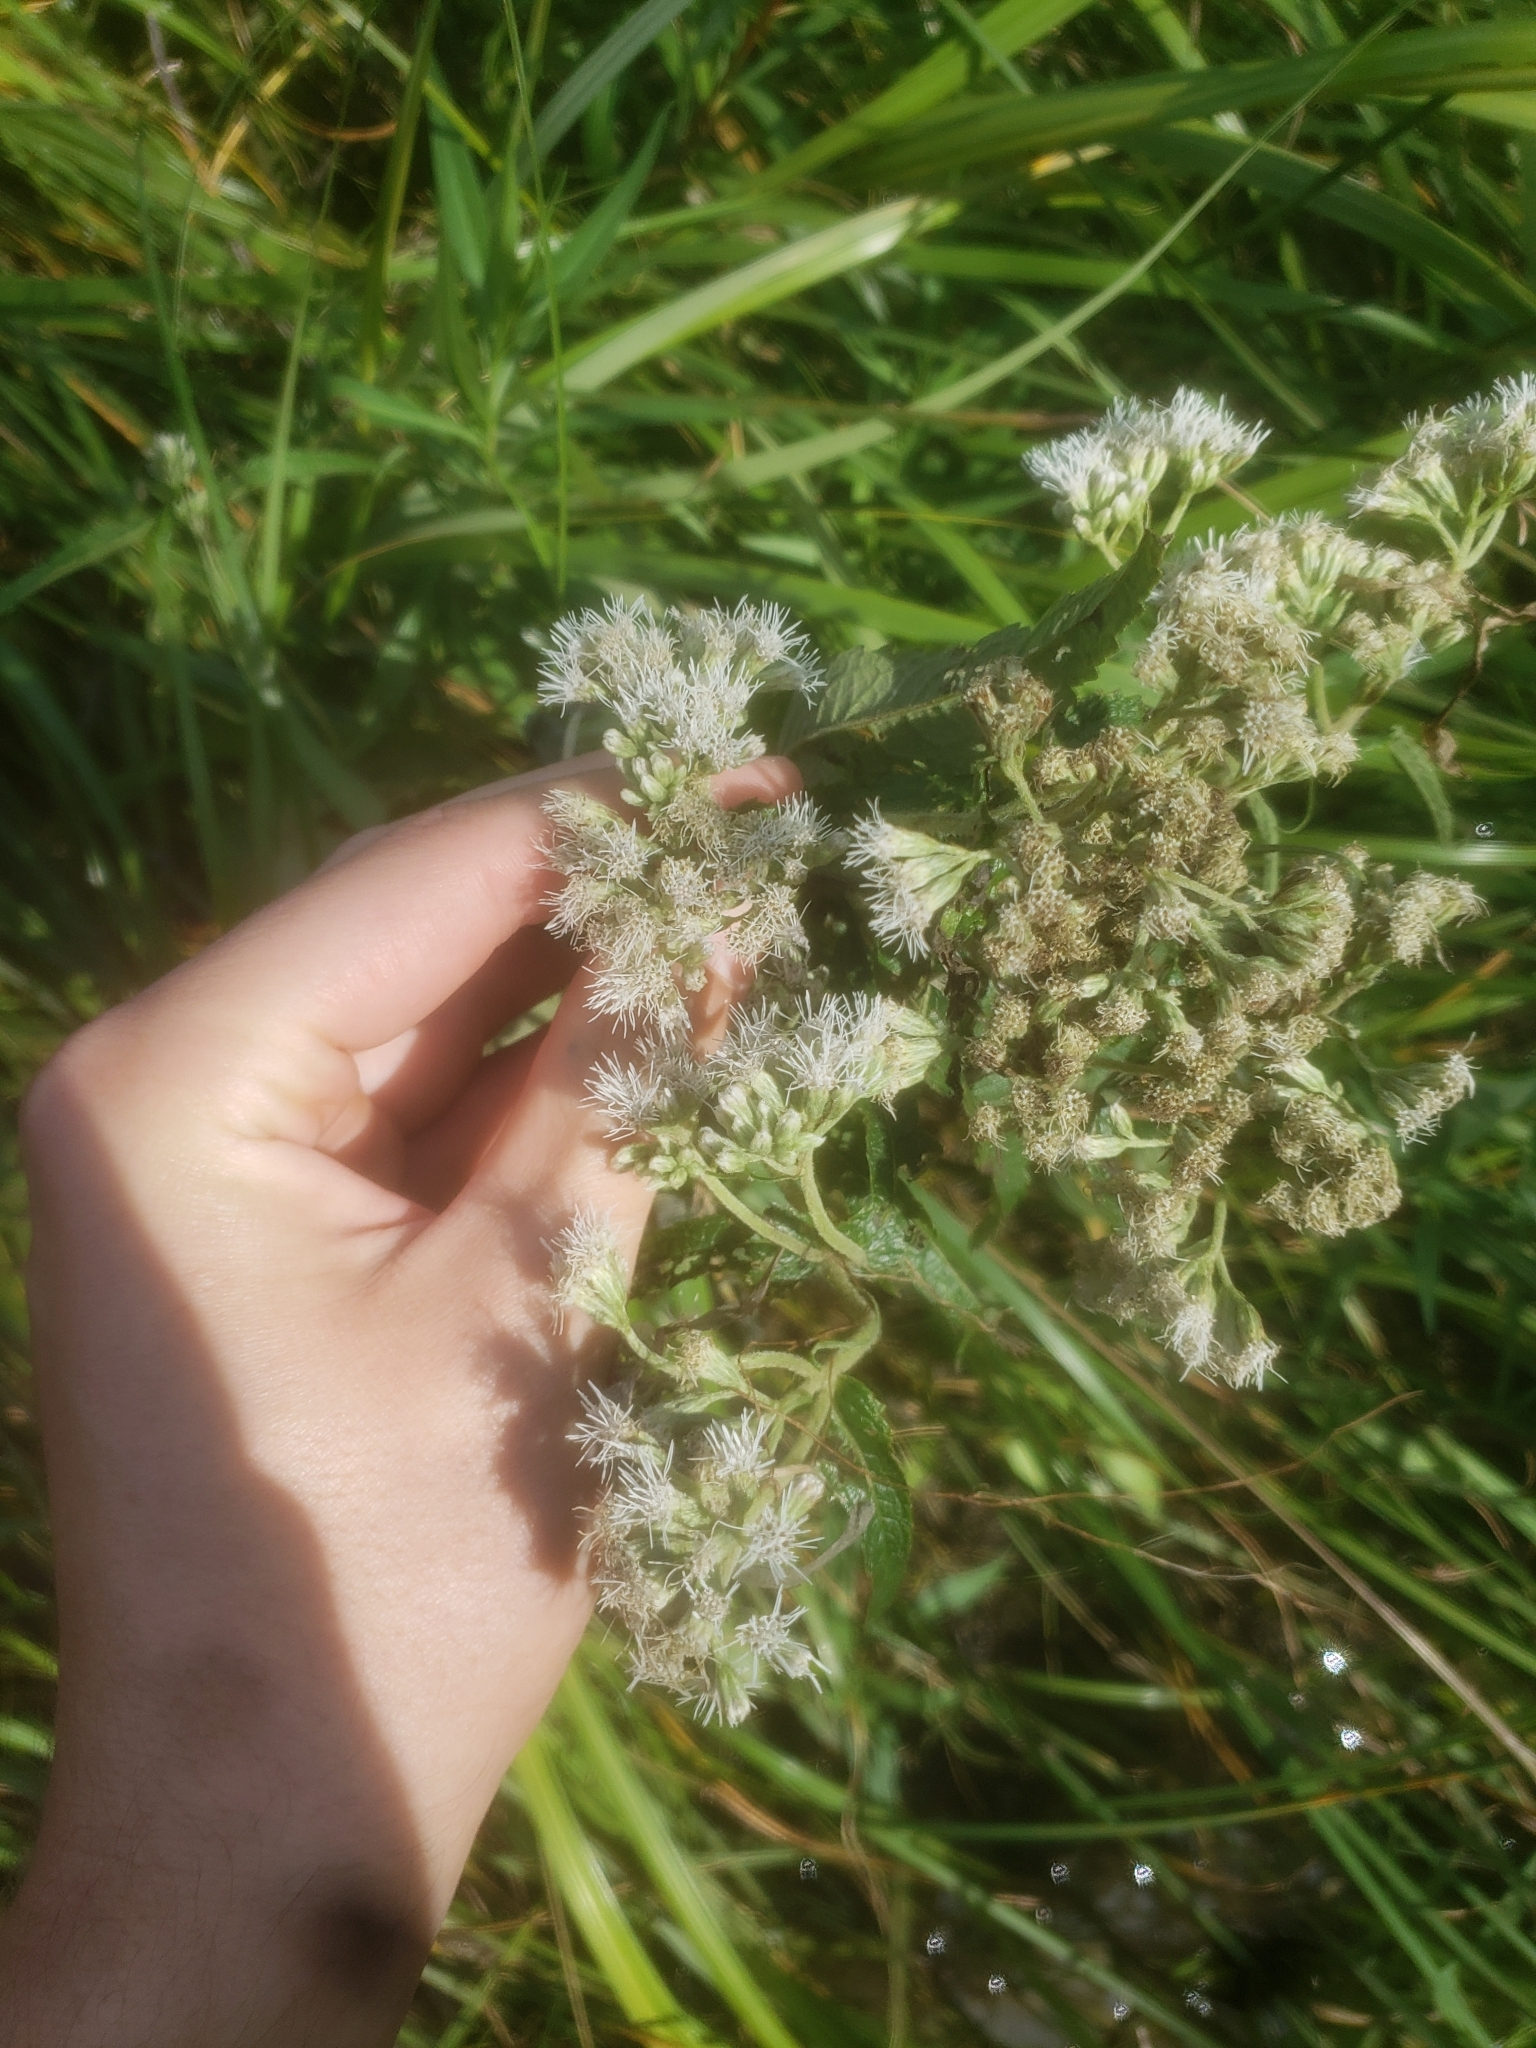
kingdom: Plantae
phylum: Tracheophyta
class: Magnoliopsida
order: Asterales
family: Asteraceae
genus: Eupatorium
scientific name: Eupatorium perfoliatum
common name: Boneset
